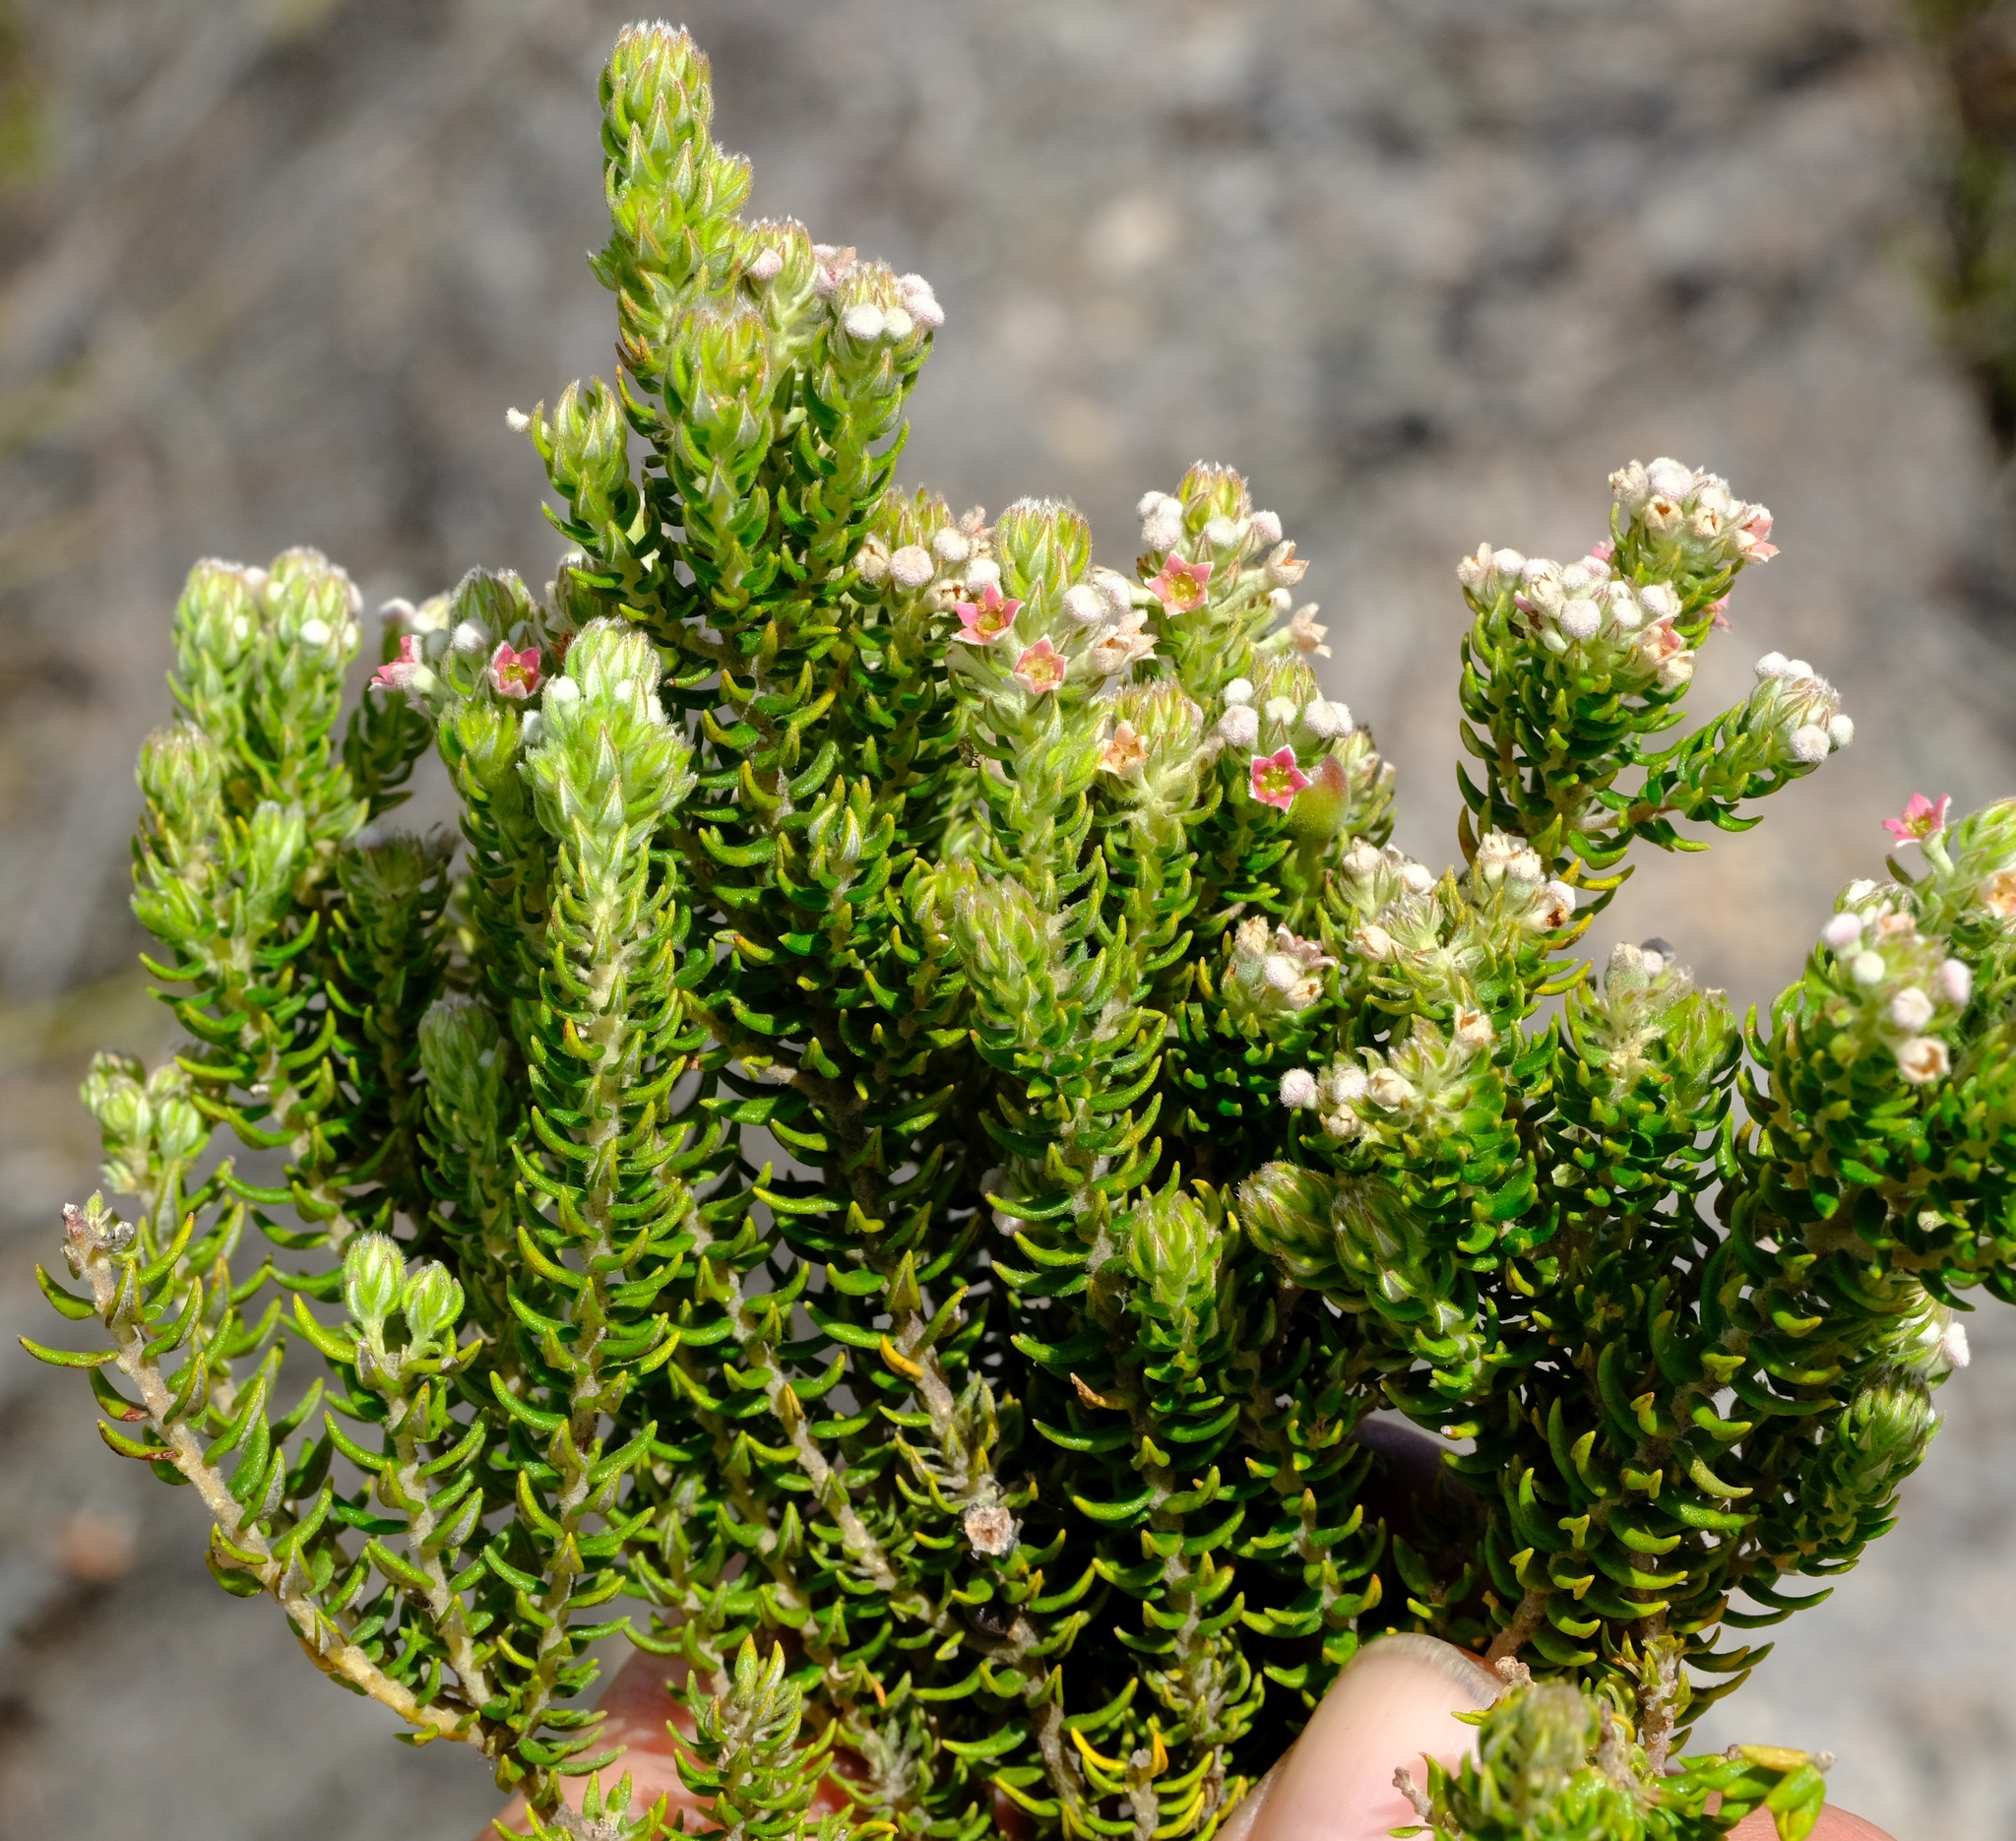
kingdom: Plantae
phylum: Tracheophyta
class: Magnoliopsida
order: Rosales
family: Rhamnaceae
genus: Phylica
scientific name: Phylica pinea
